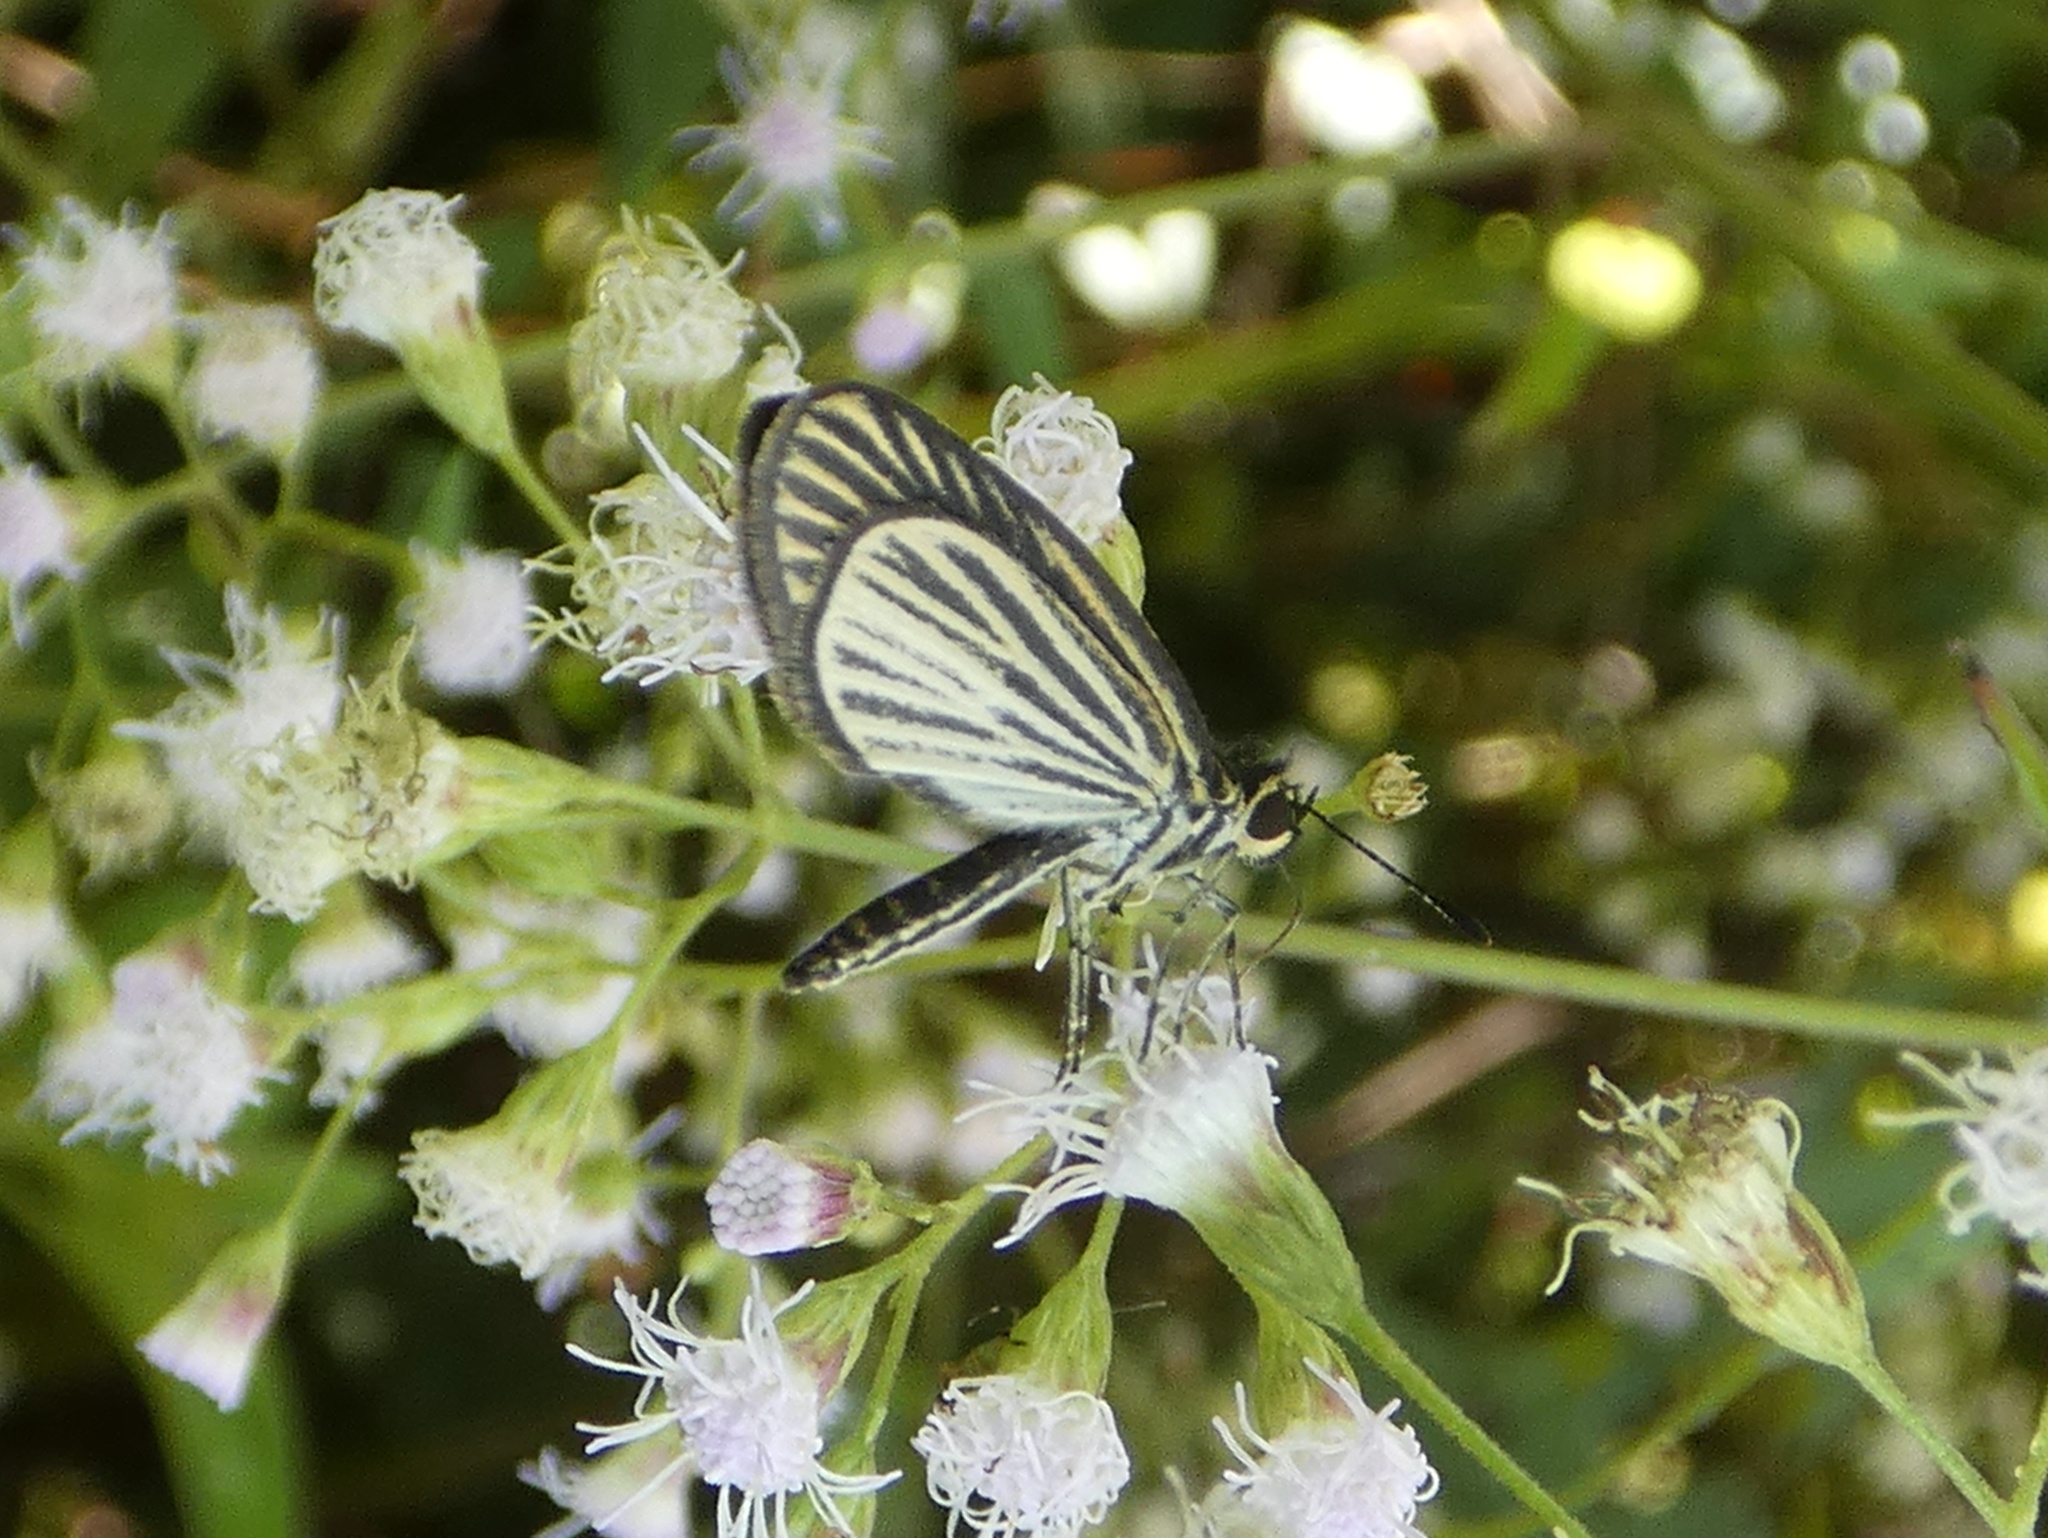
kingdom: Animalia
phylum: Arthropoda
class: Insecta
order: Lepidoptera
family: Hesperiidae
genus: Apaustus
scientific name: Apaustus gracilis
